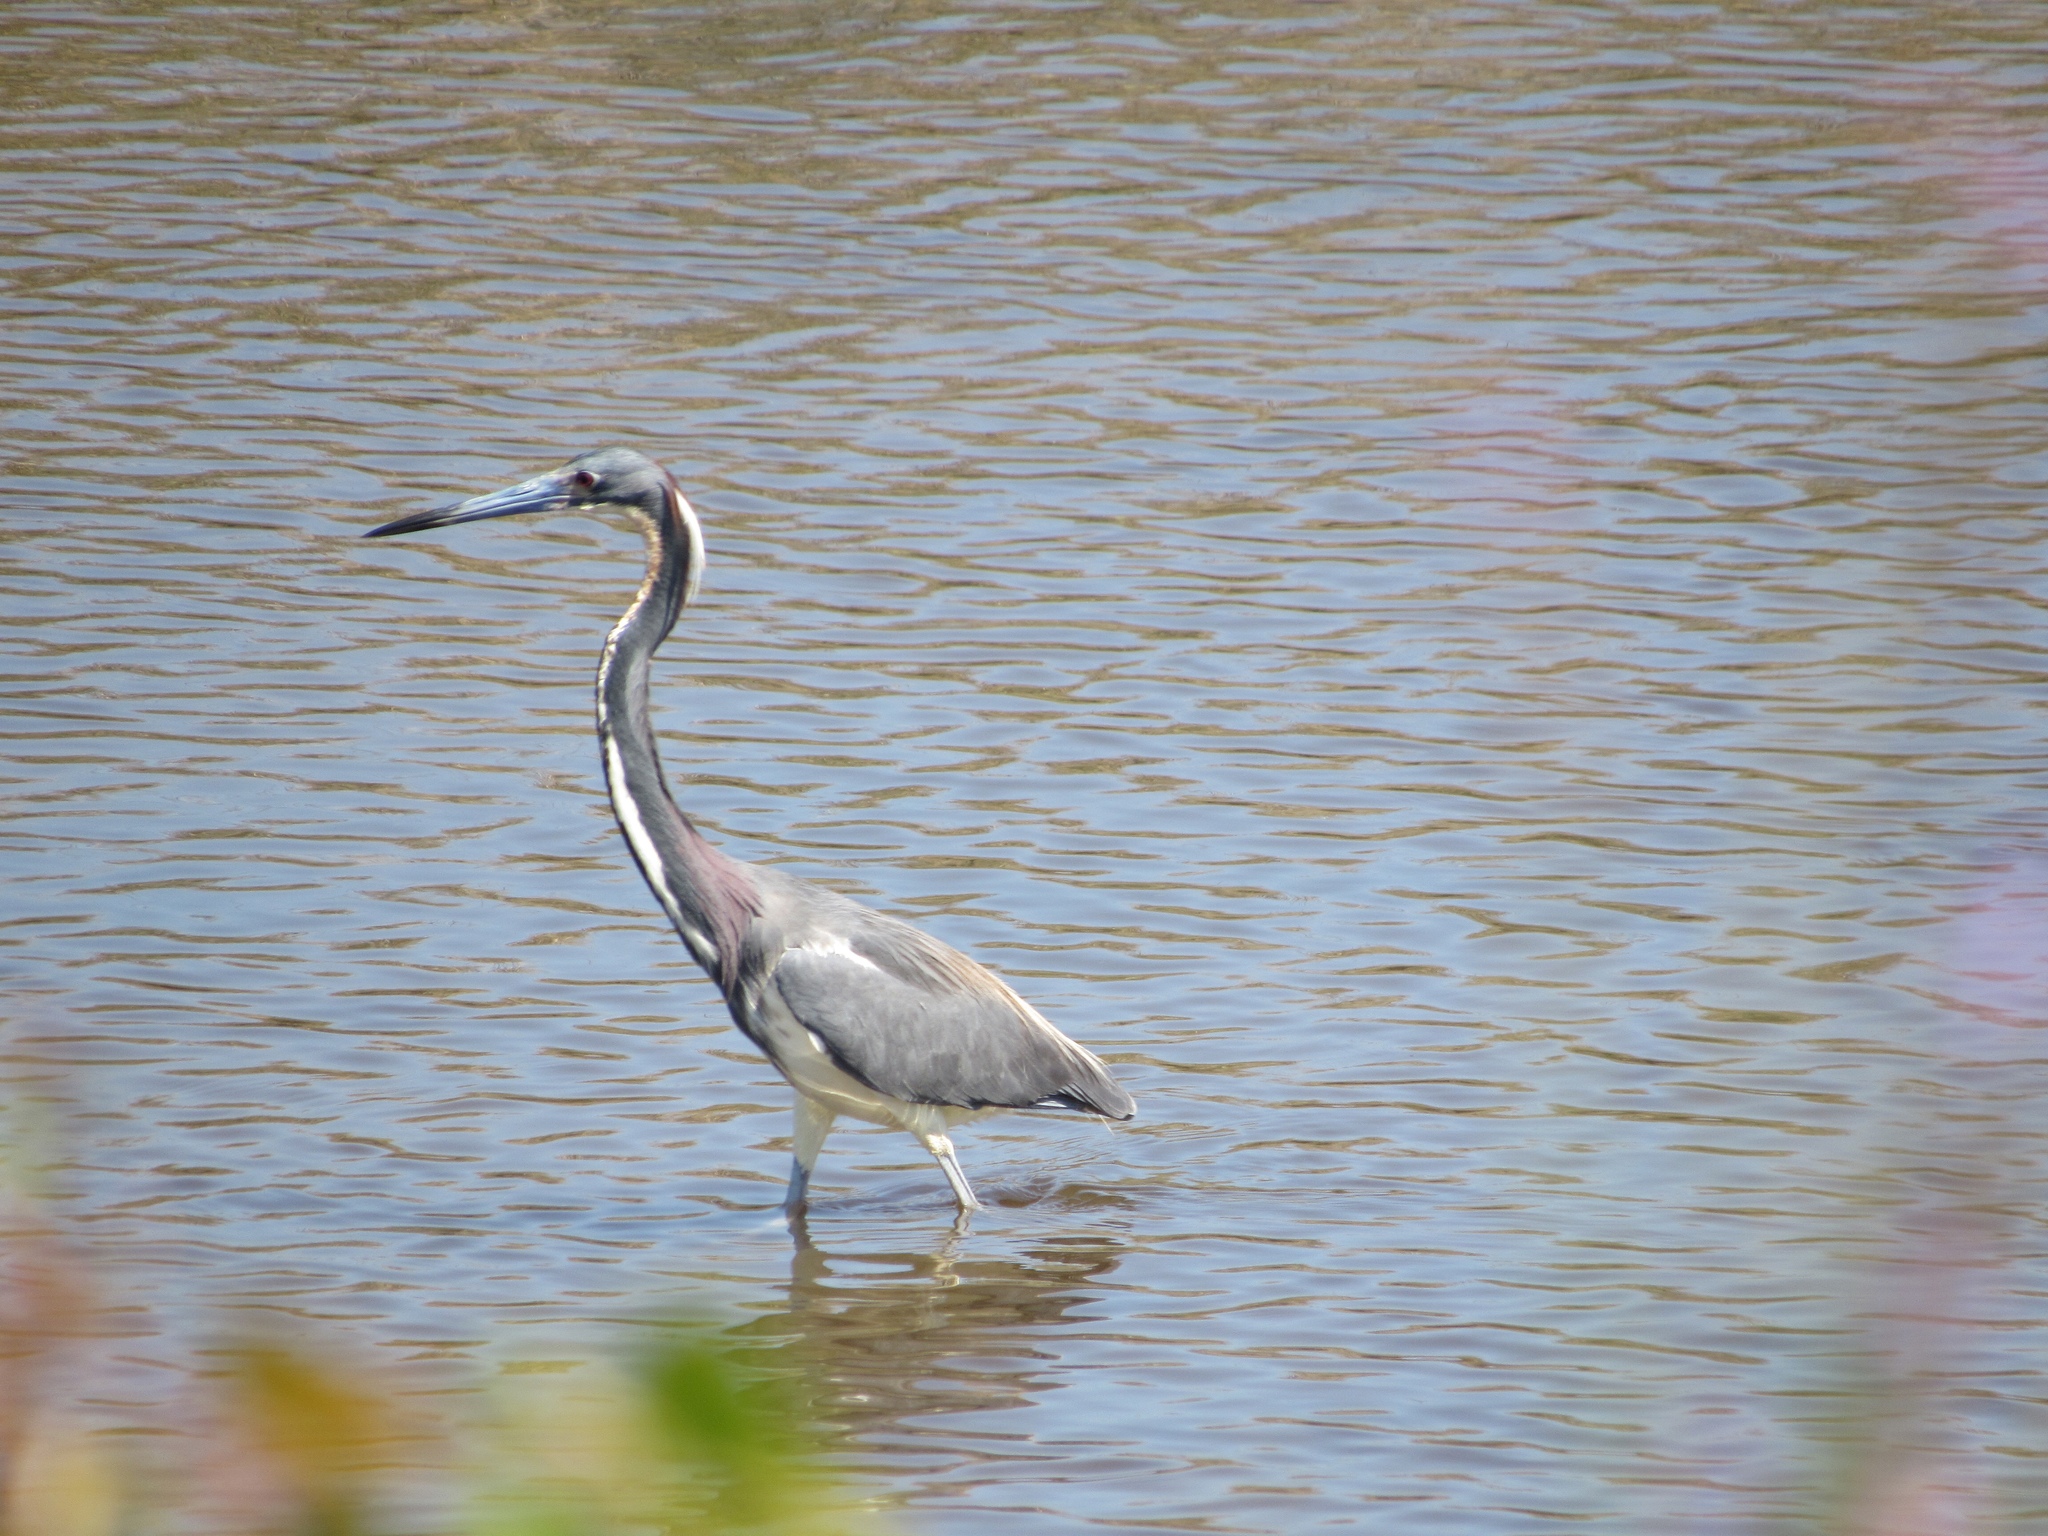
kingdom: Animalia
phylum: Chordata
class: Aves
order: Pelecaniformes
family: Ardeidae
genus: Egretta
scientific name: Egretta tricolor
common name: Tricolored heron
